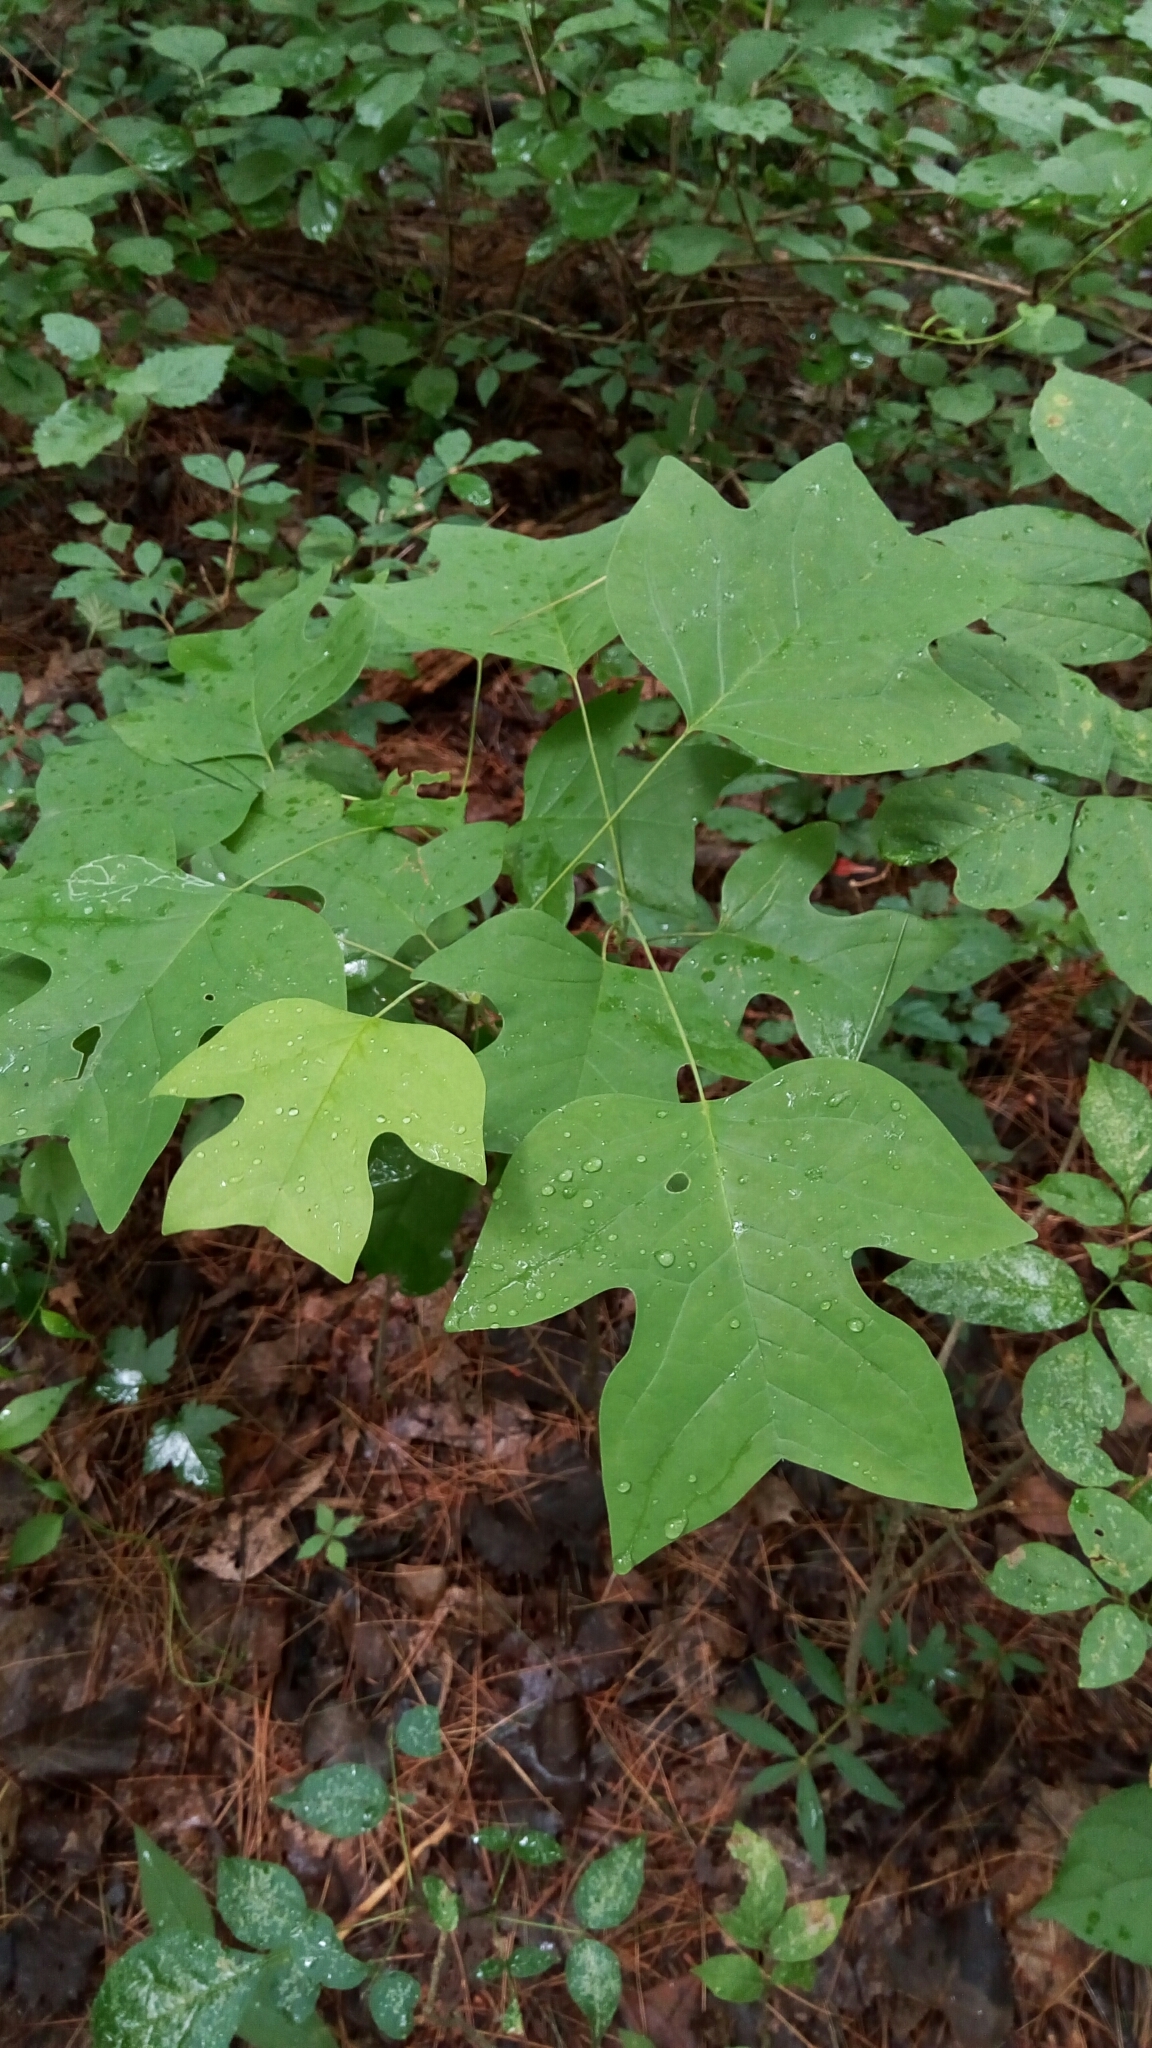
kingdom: Plantae
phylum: Tracheophyta
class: Magnoliopsida
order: Magnoliales
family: Magnoliaceae
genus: Liriodendron
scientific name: Liriodendron tulipifera
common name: Tulip tree
